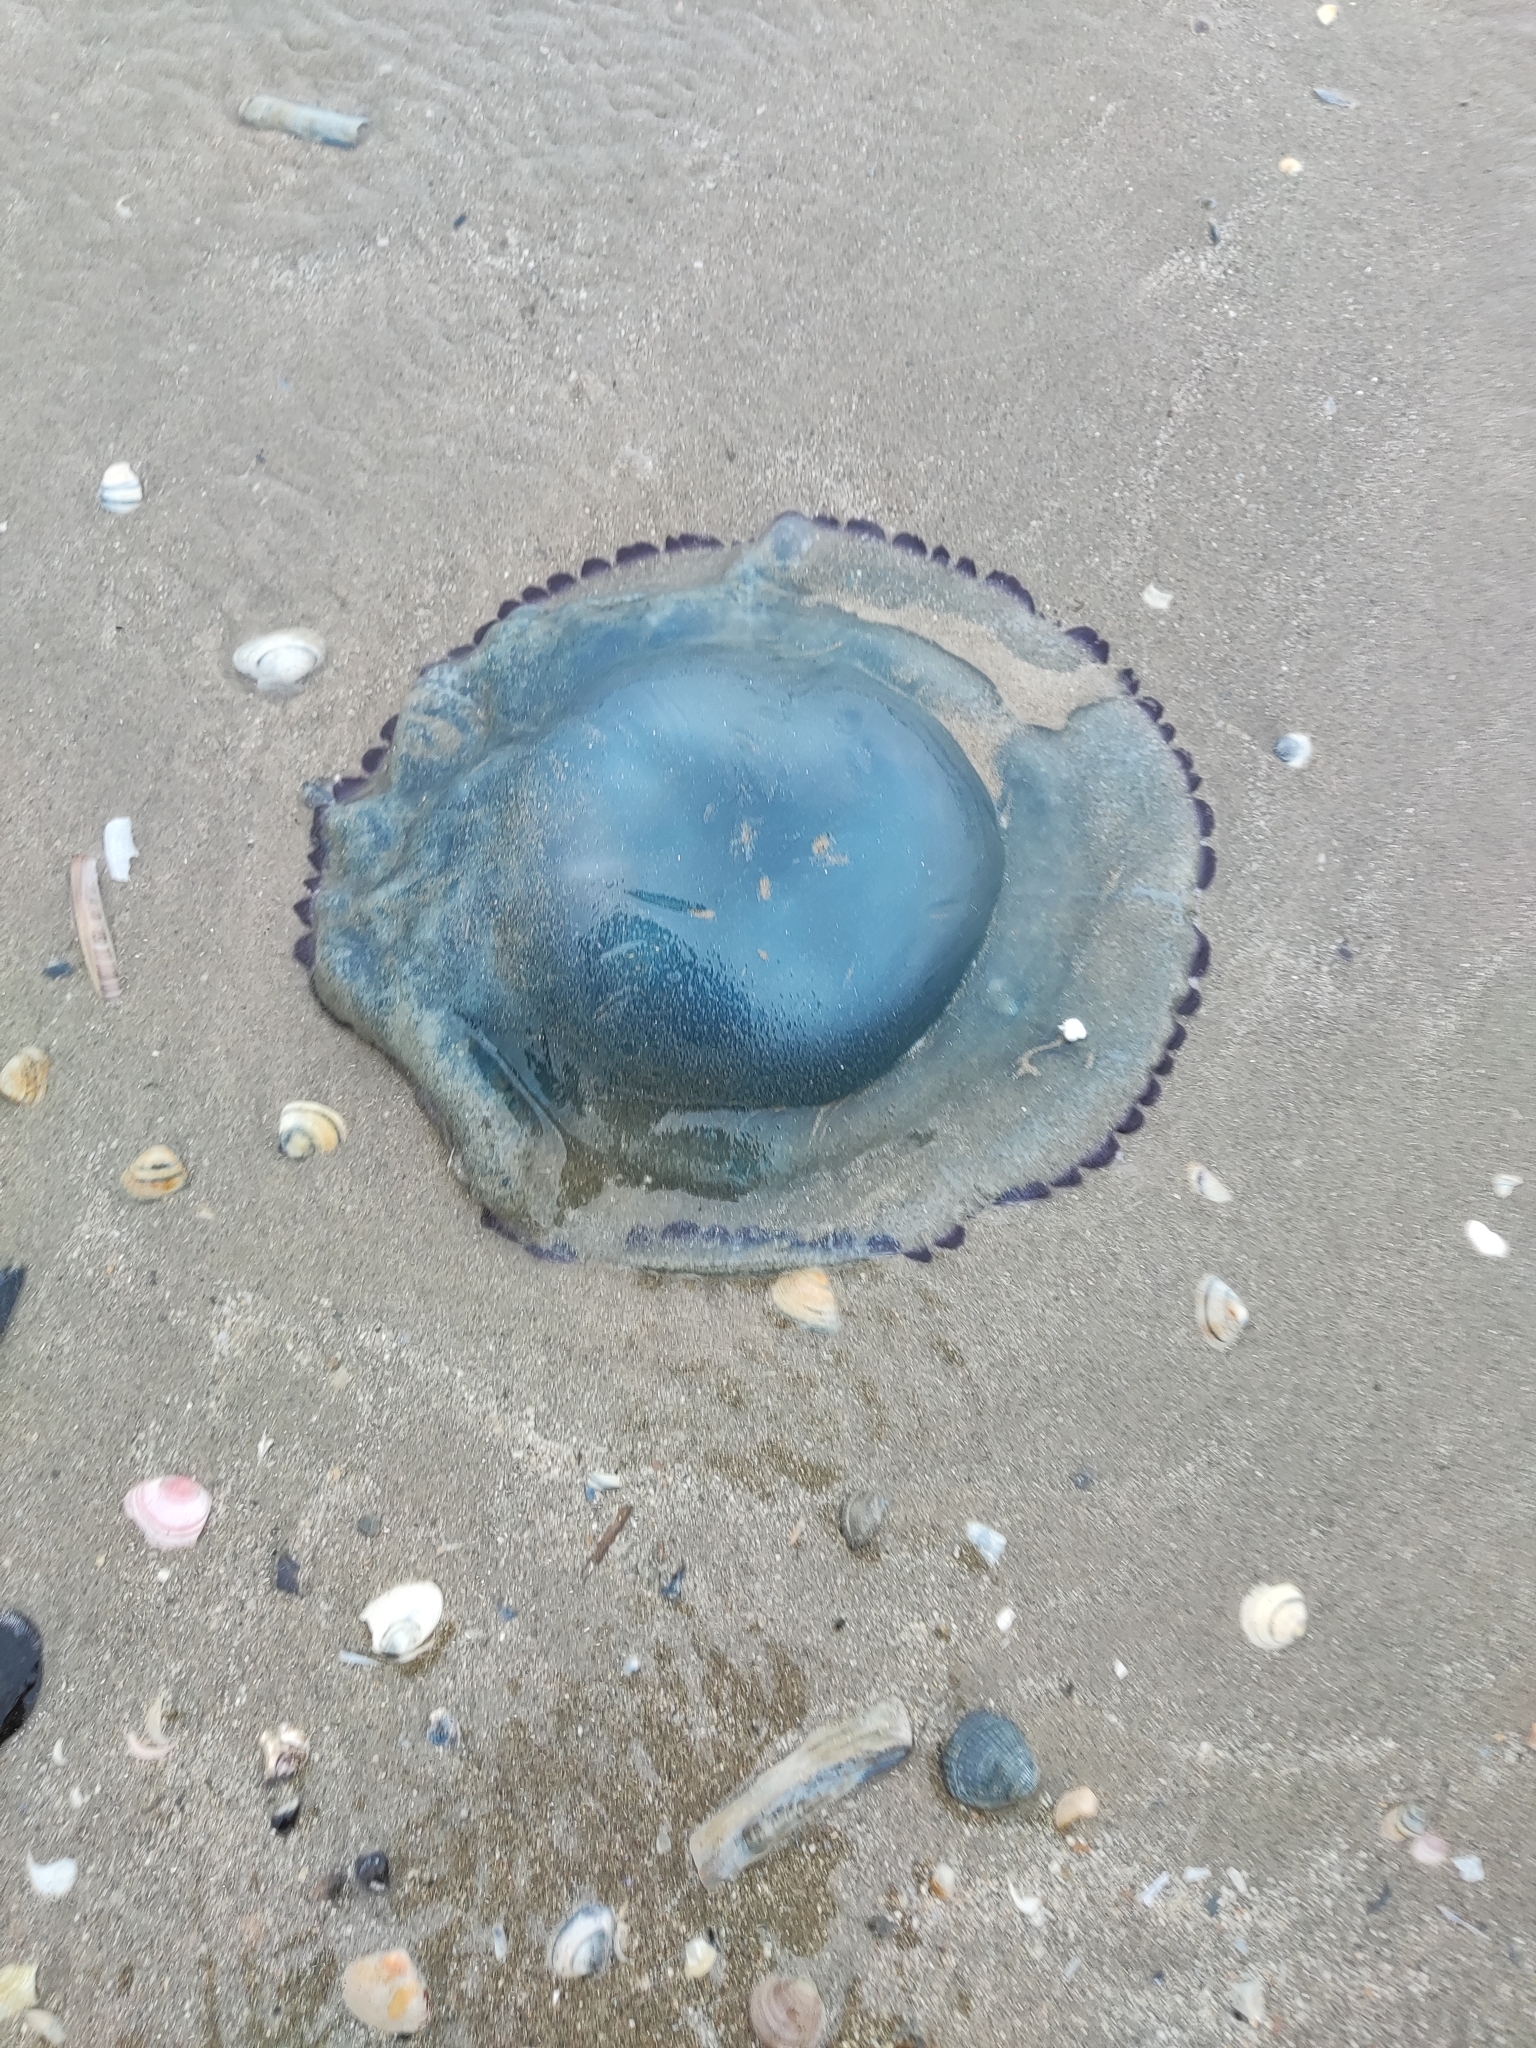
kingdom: Animalia
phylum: Cnidaria
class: Scyphozoa
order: Rhizostomeae
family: Rhizostomatidae
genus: Rhizostoma
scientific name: Rhizostoma octopus
